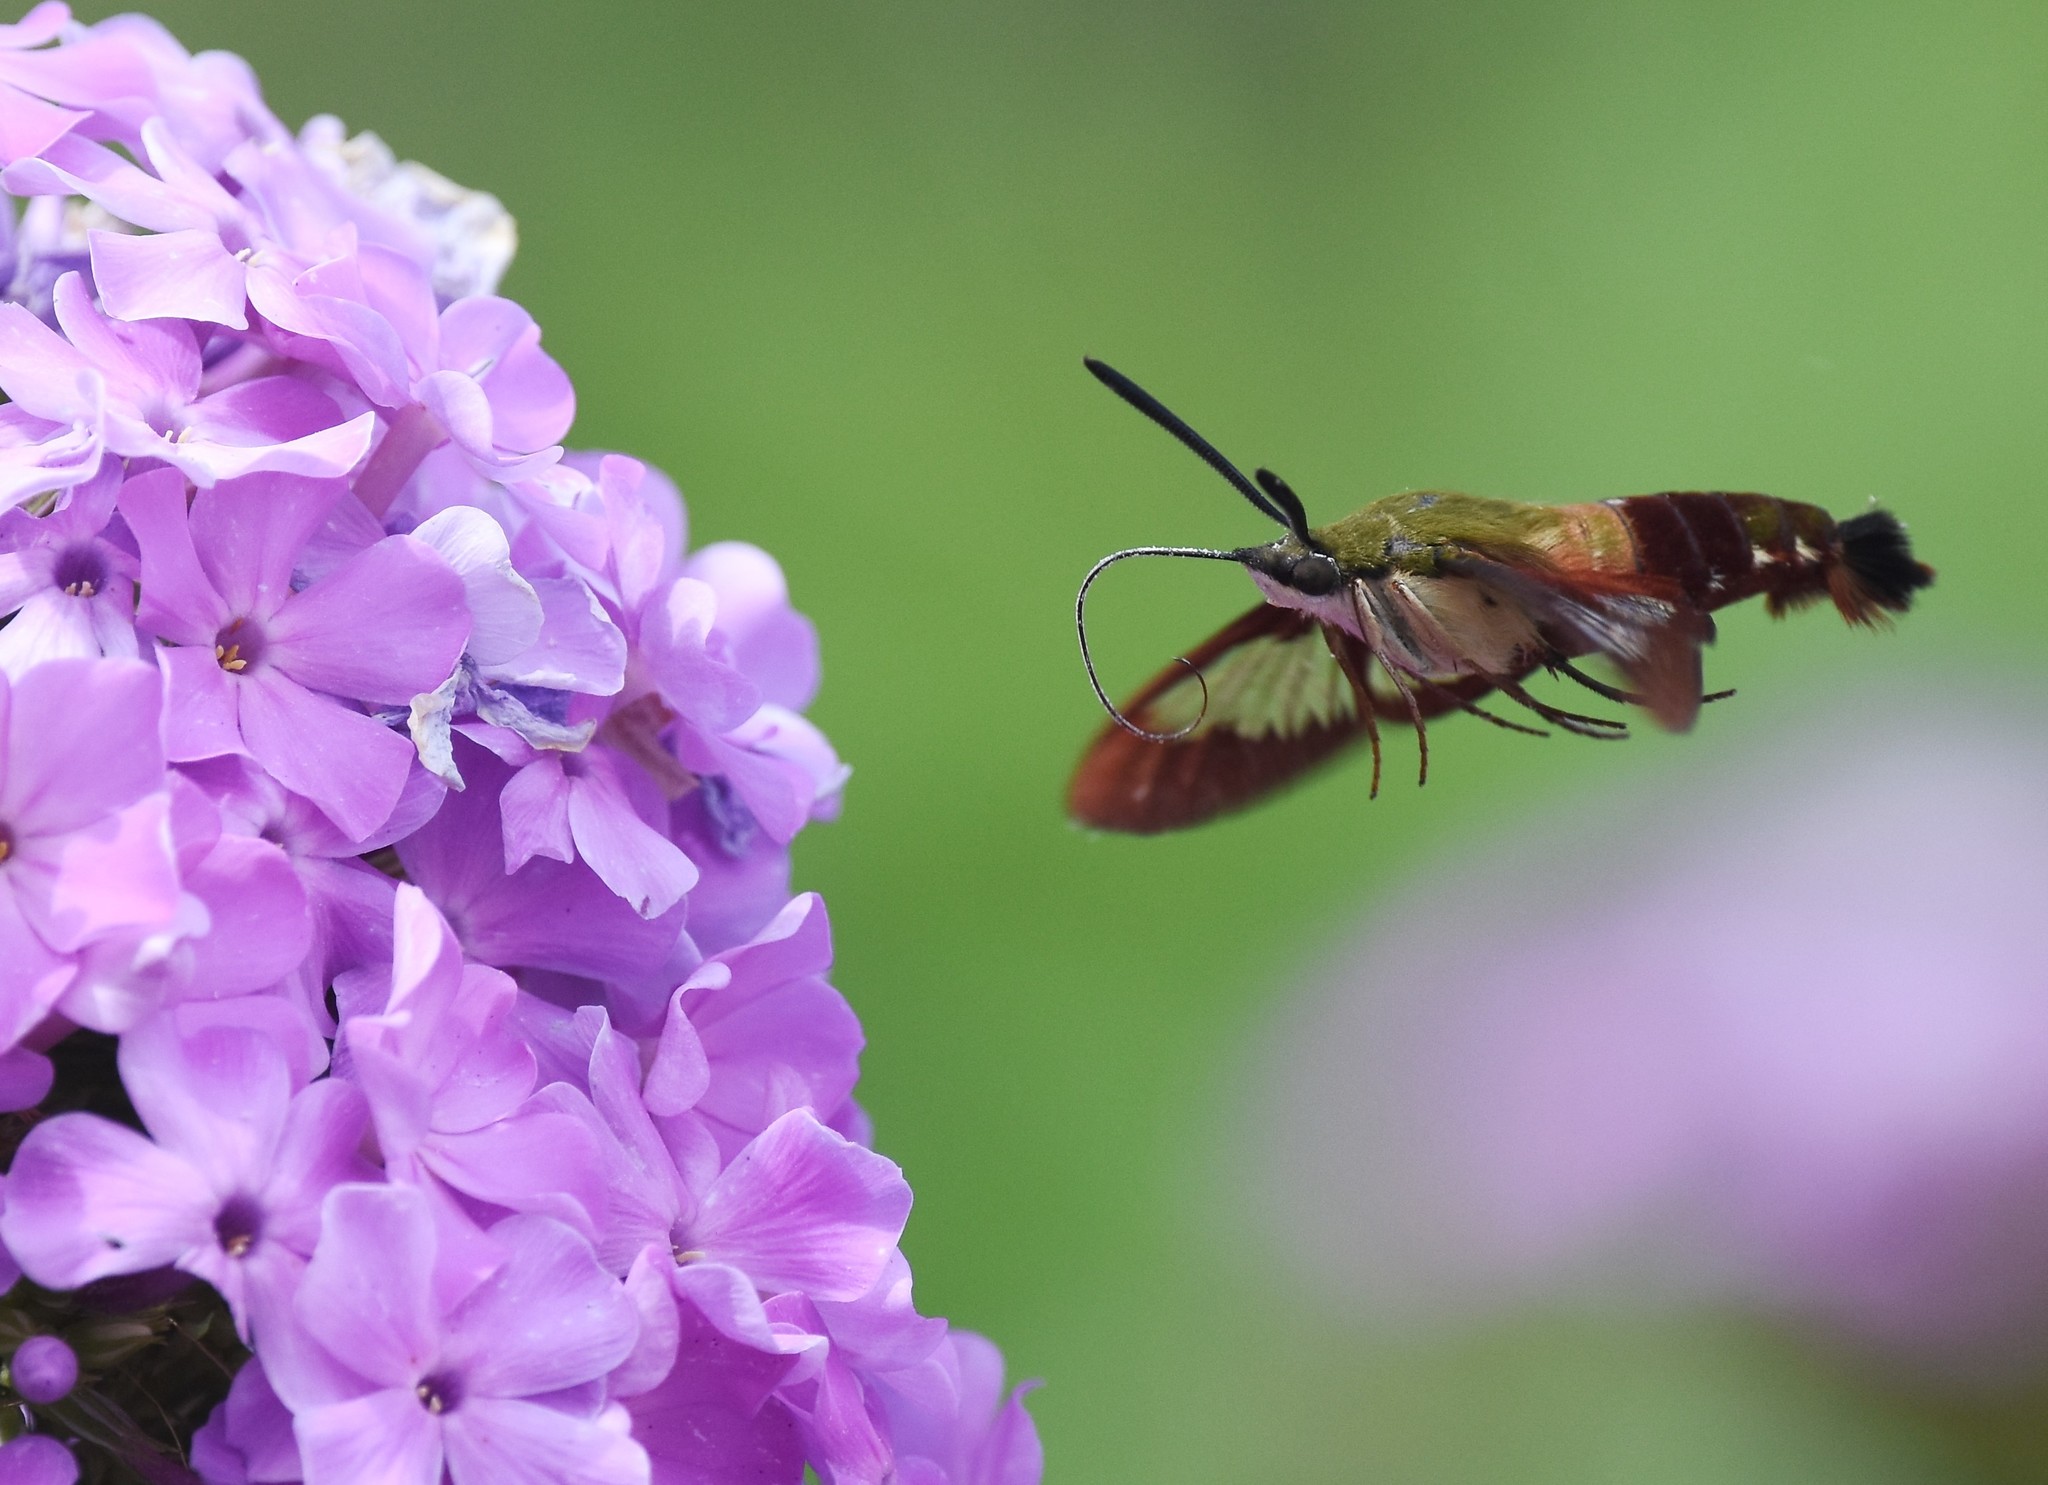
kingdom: Animalia
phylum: Arthropoda
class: Insecta
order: Lepidoptera
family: Sphingidae
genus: Hemaris
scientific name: Hemaris thysbe
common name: Common clear-wing
